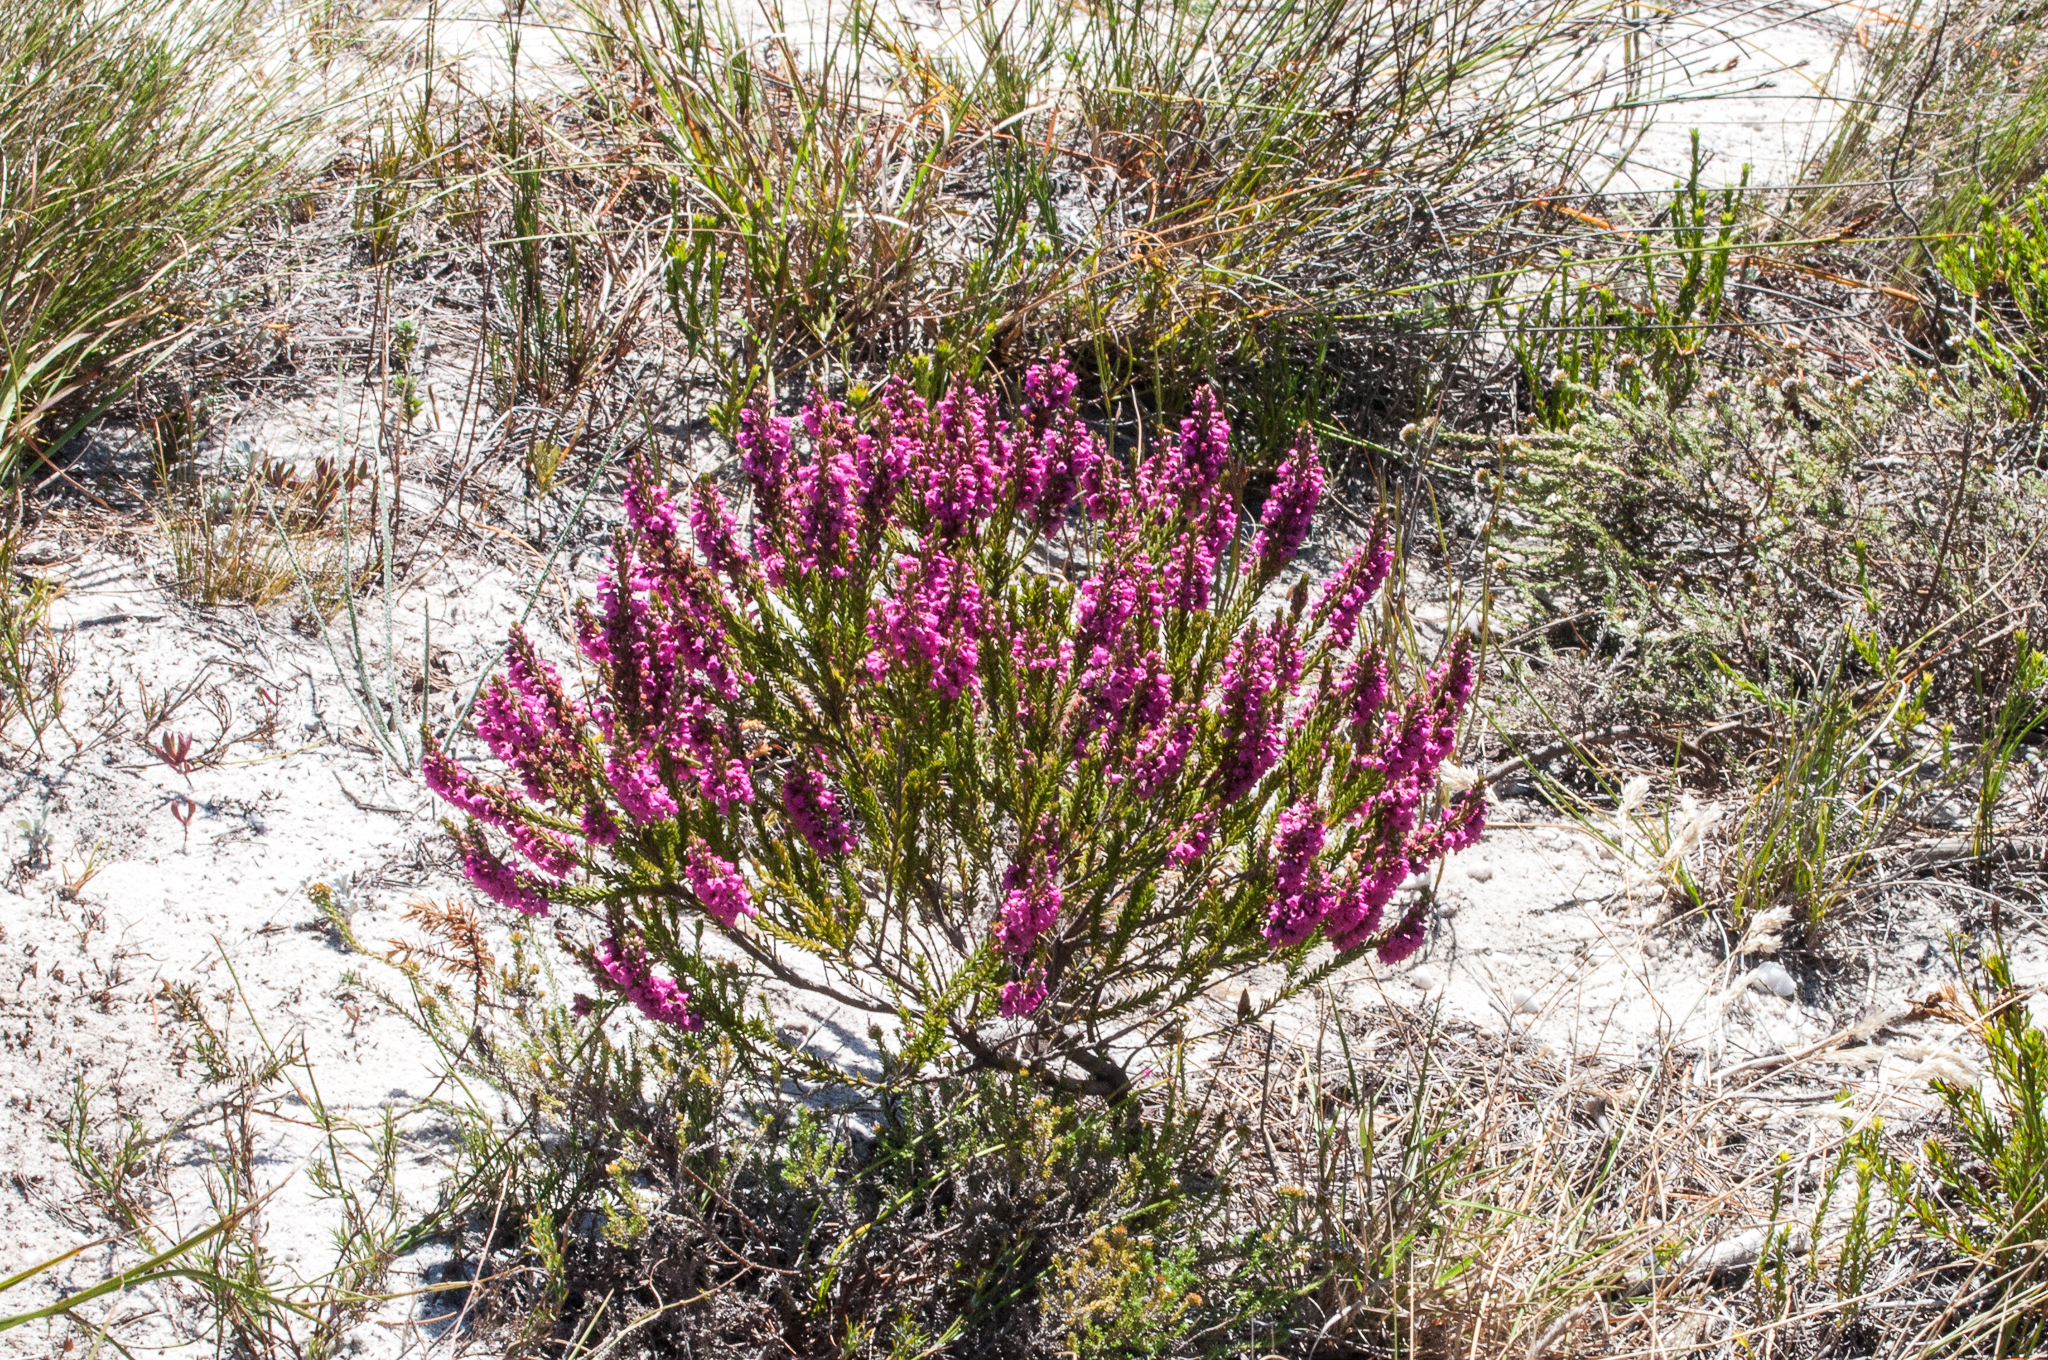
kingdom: Plantae
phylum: Tracheophyta
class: Magnoliopsida
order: Ericales
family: Ericaceae
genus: Erica
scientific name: Erica pulchella
